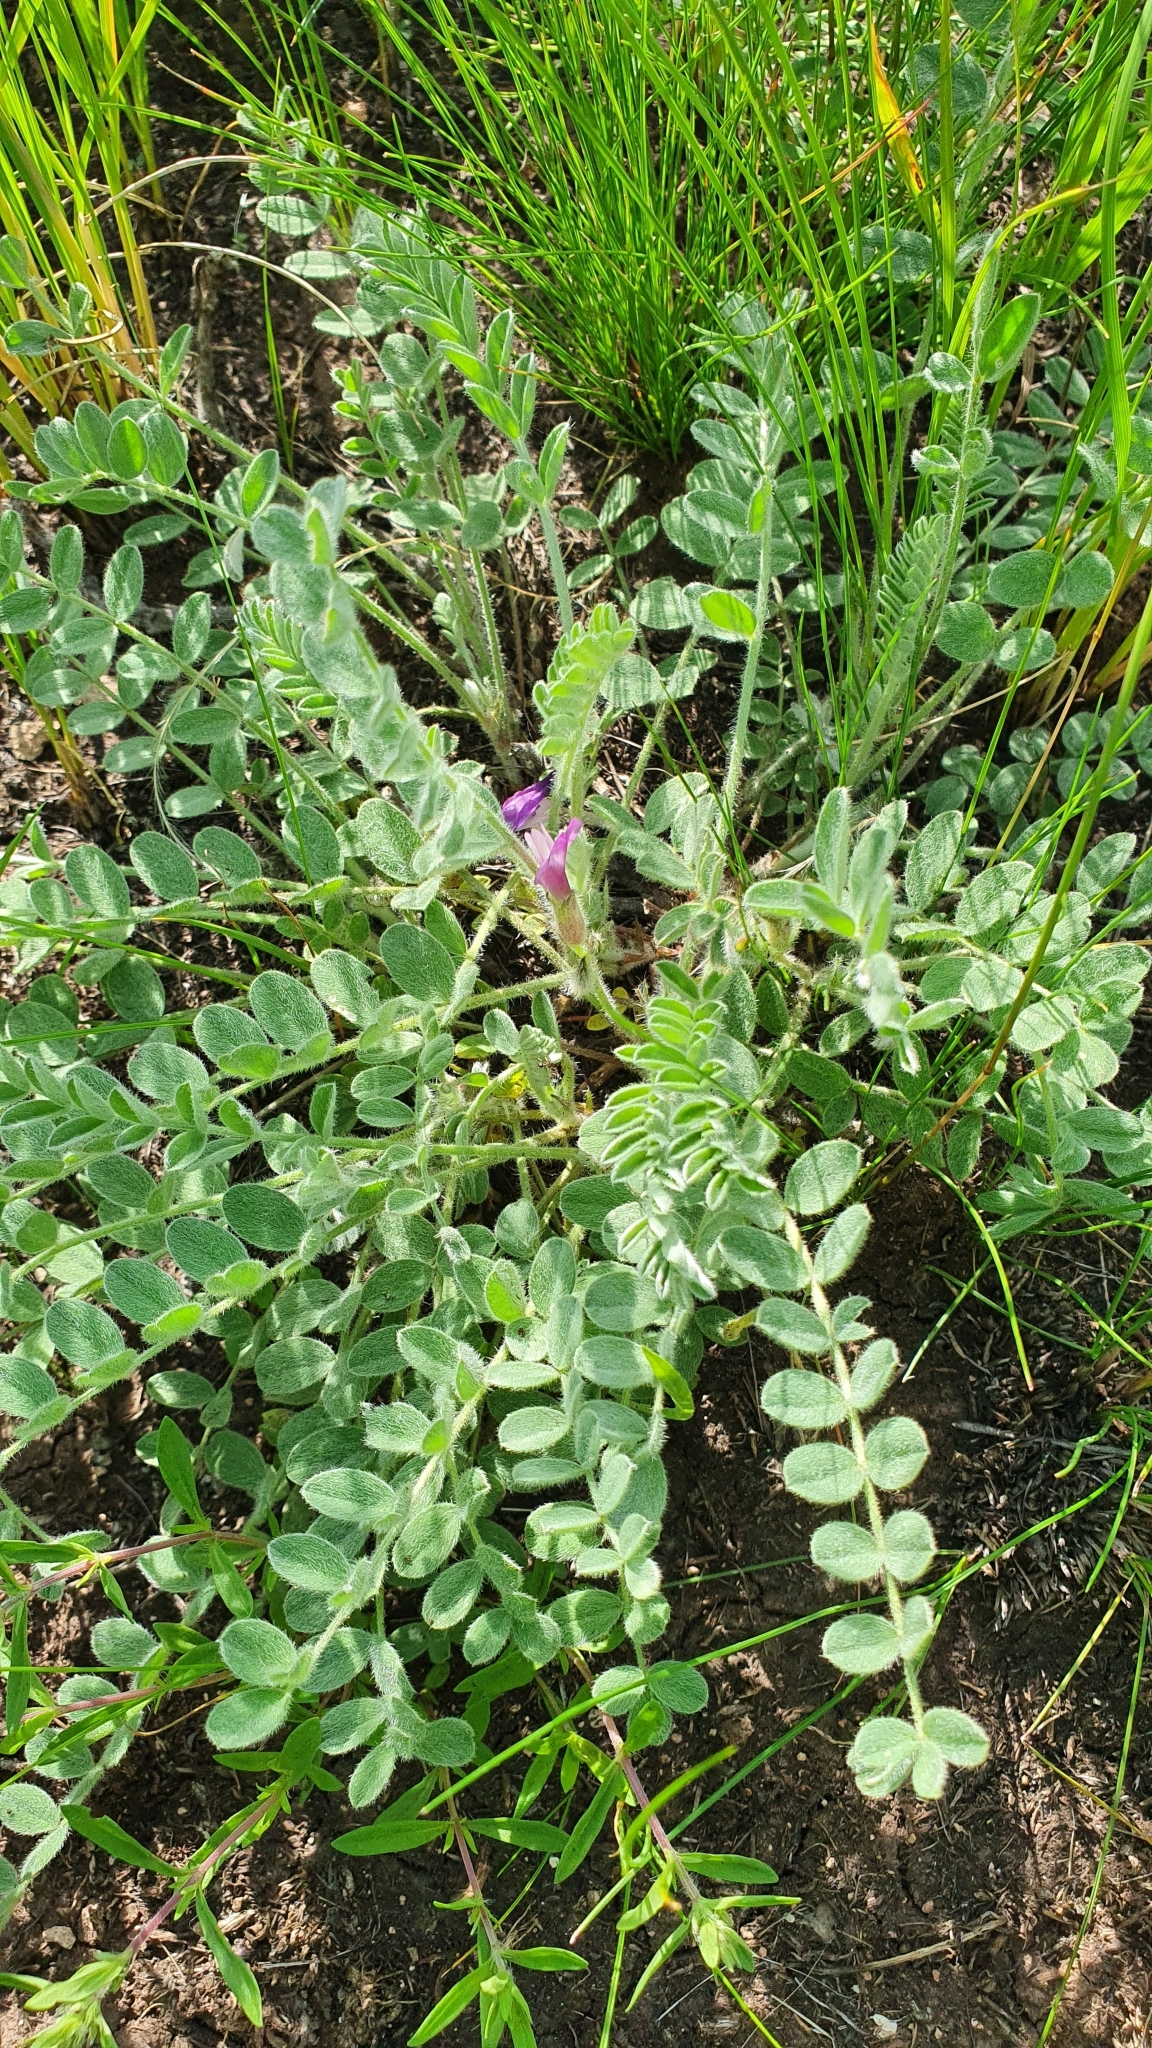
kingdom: Plantae
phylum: Tracheophyta
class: Magnoliopsida
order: Fabales
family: Fabaceae
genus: Astragalus
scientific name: Astragalus rupifragus
